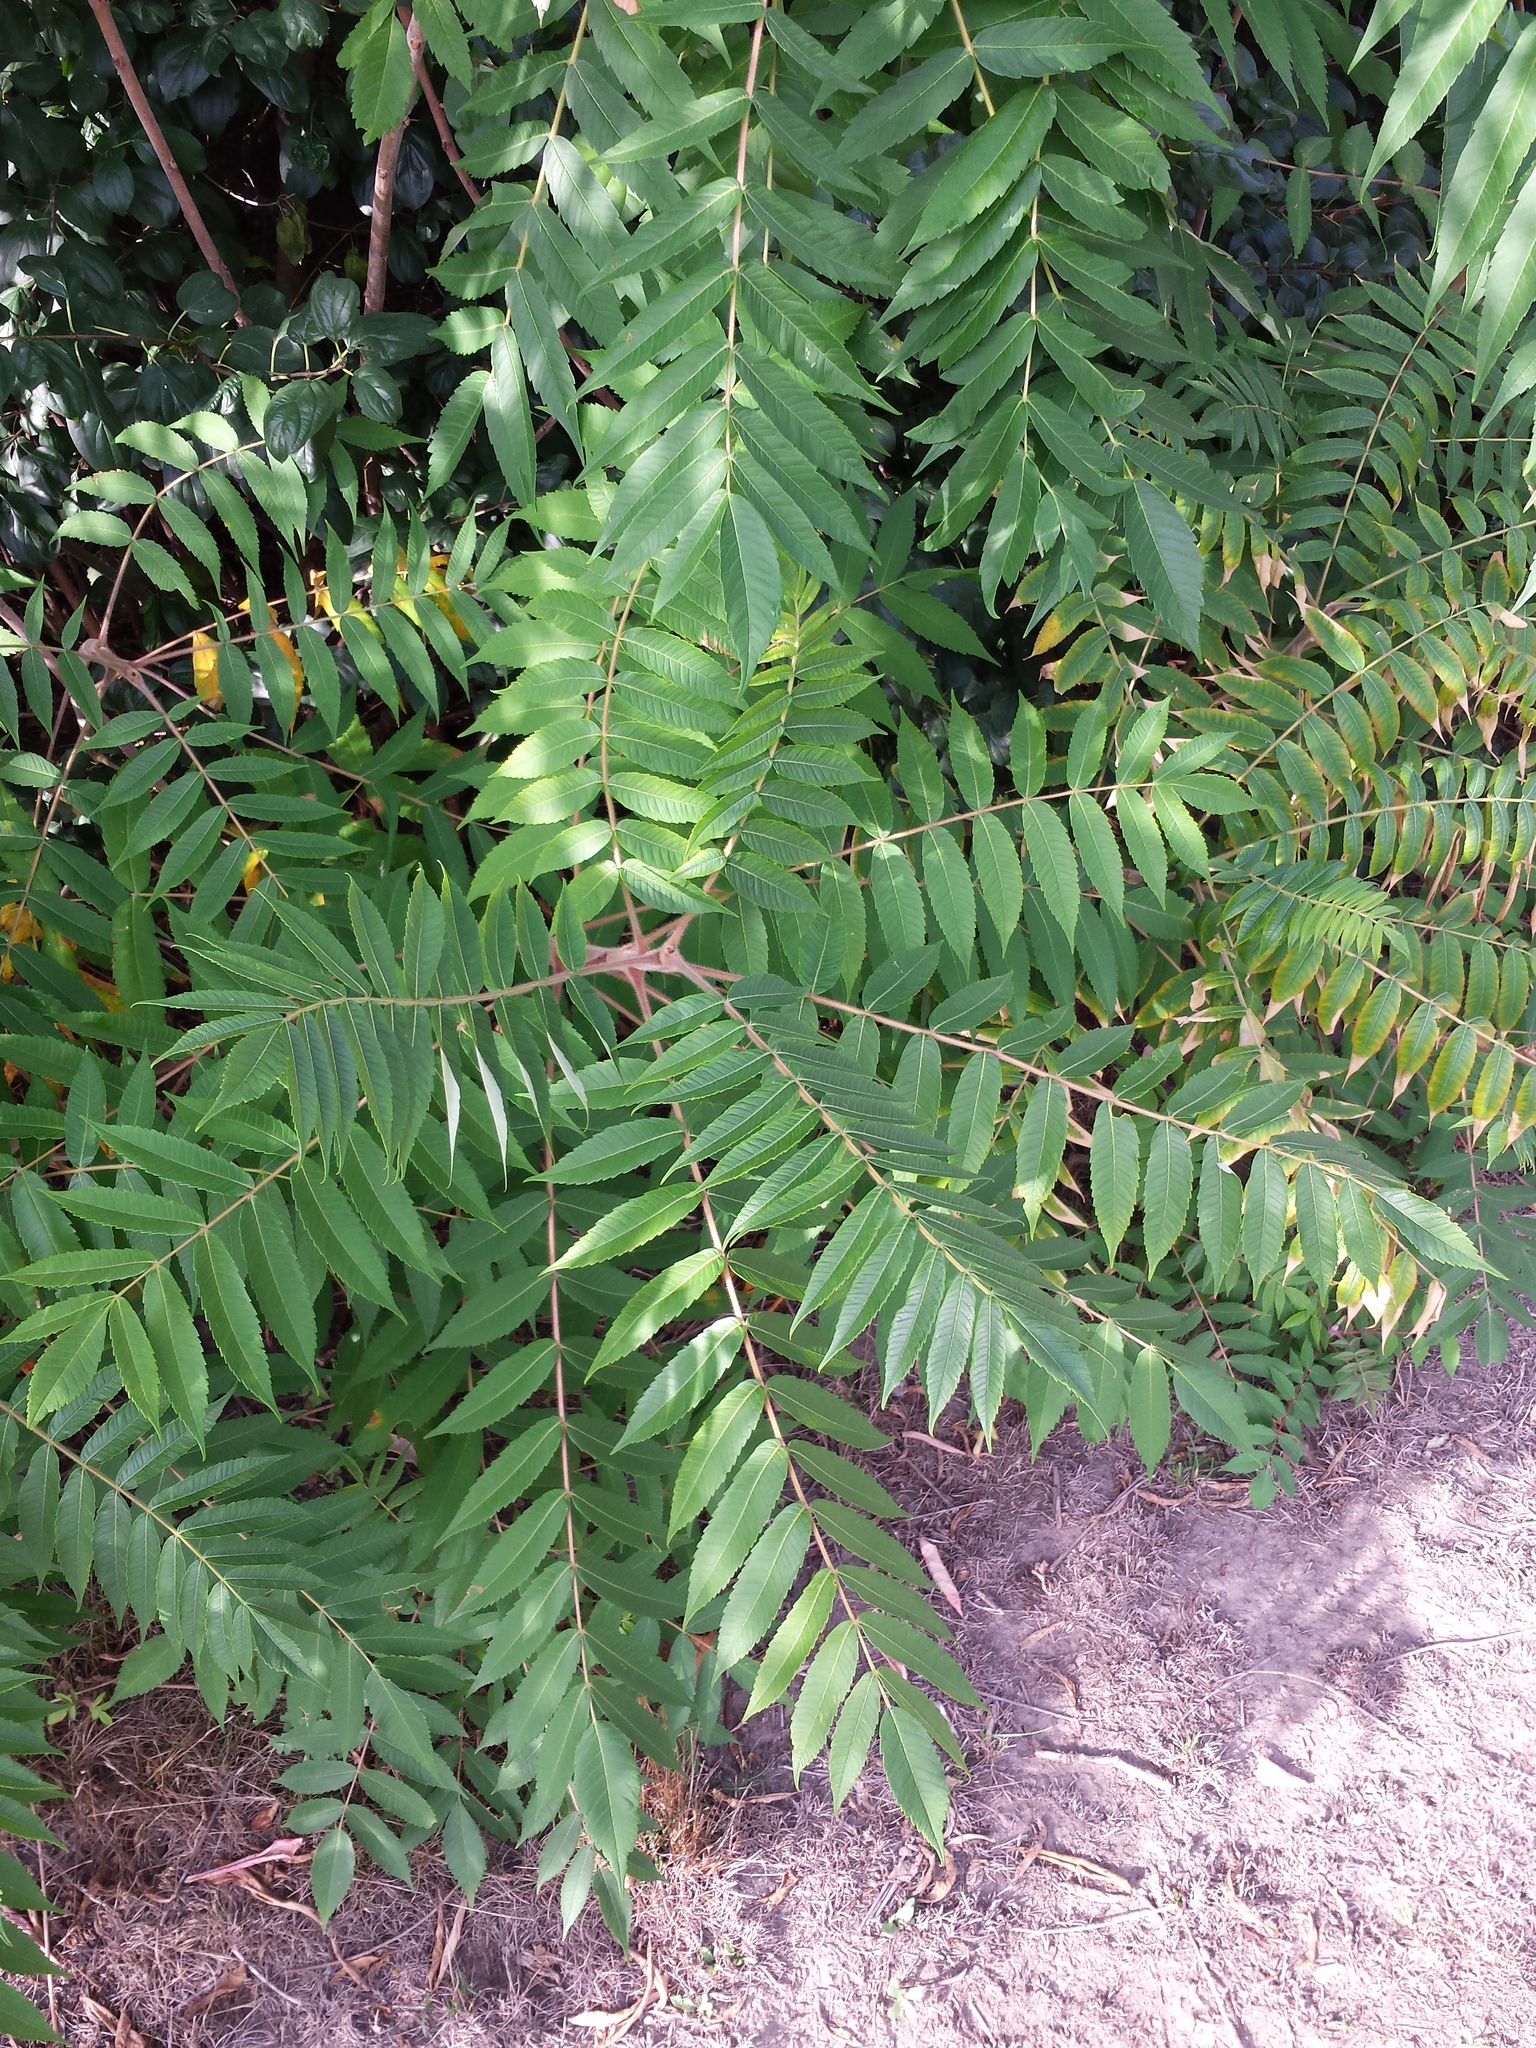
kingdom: Plantae
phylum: Tracheophyta
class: Magnoliopsida
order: Sapindales
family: Anacardiaceae
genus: Rhus
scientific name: Rhus typhina
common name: Staghorn sumac
